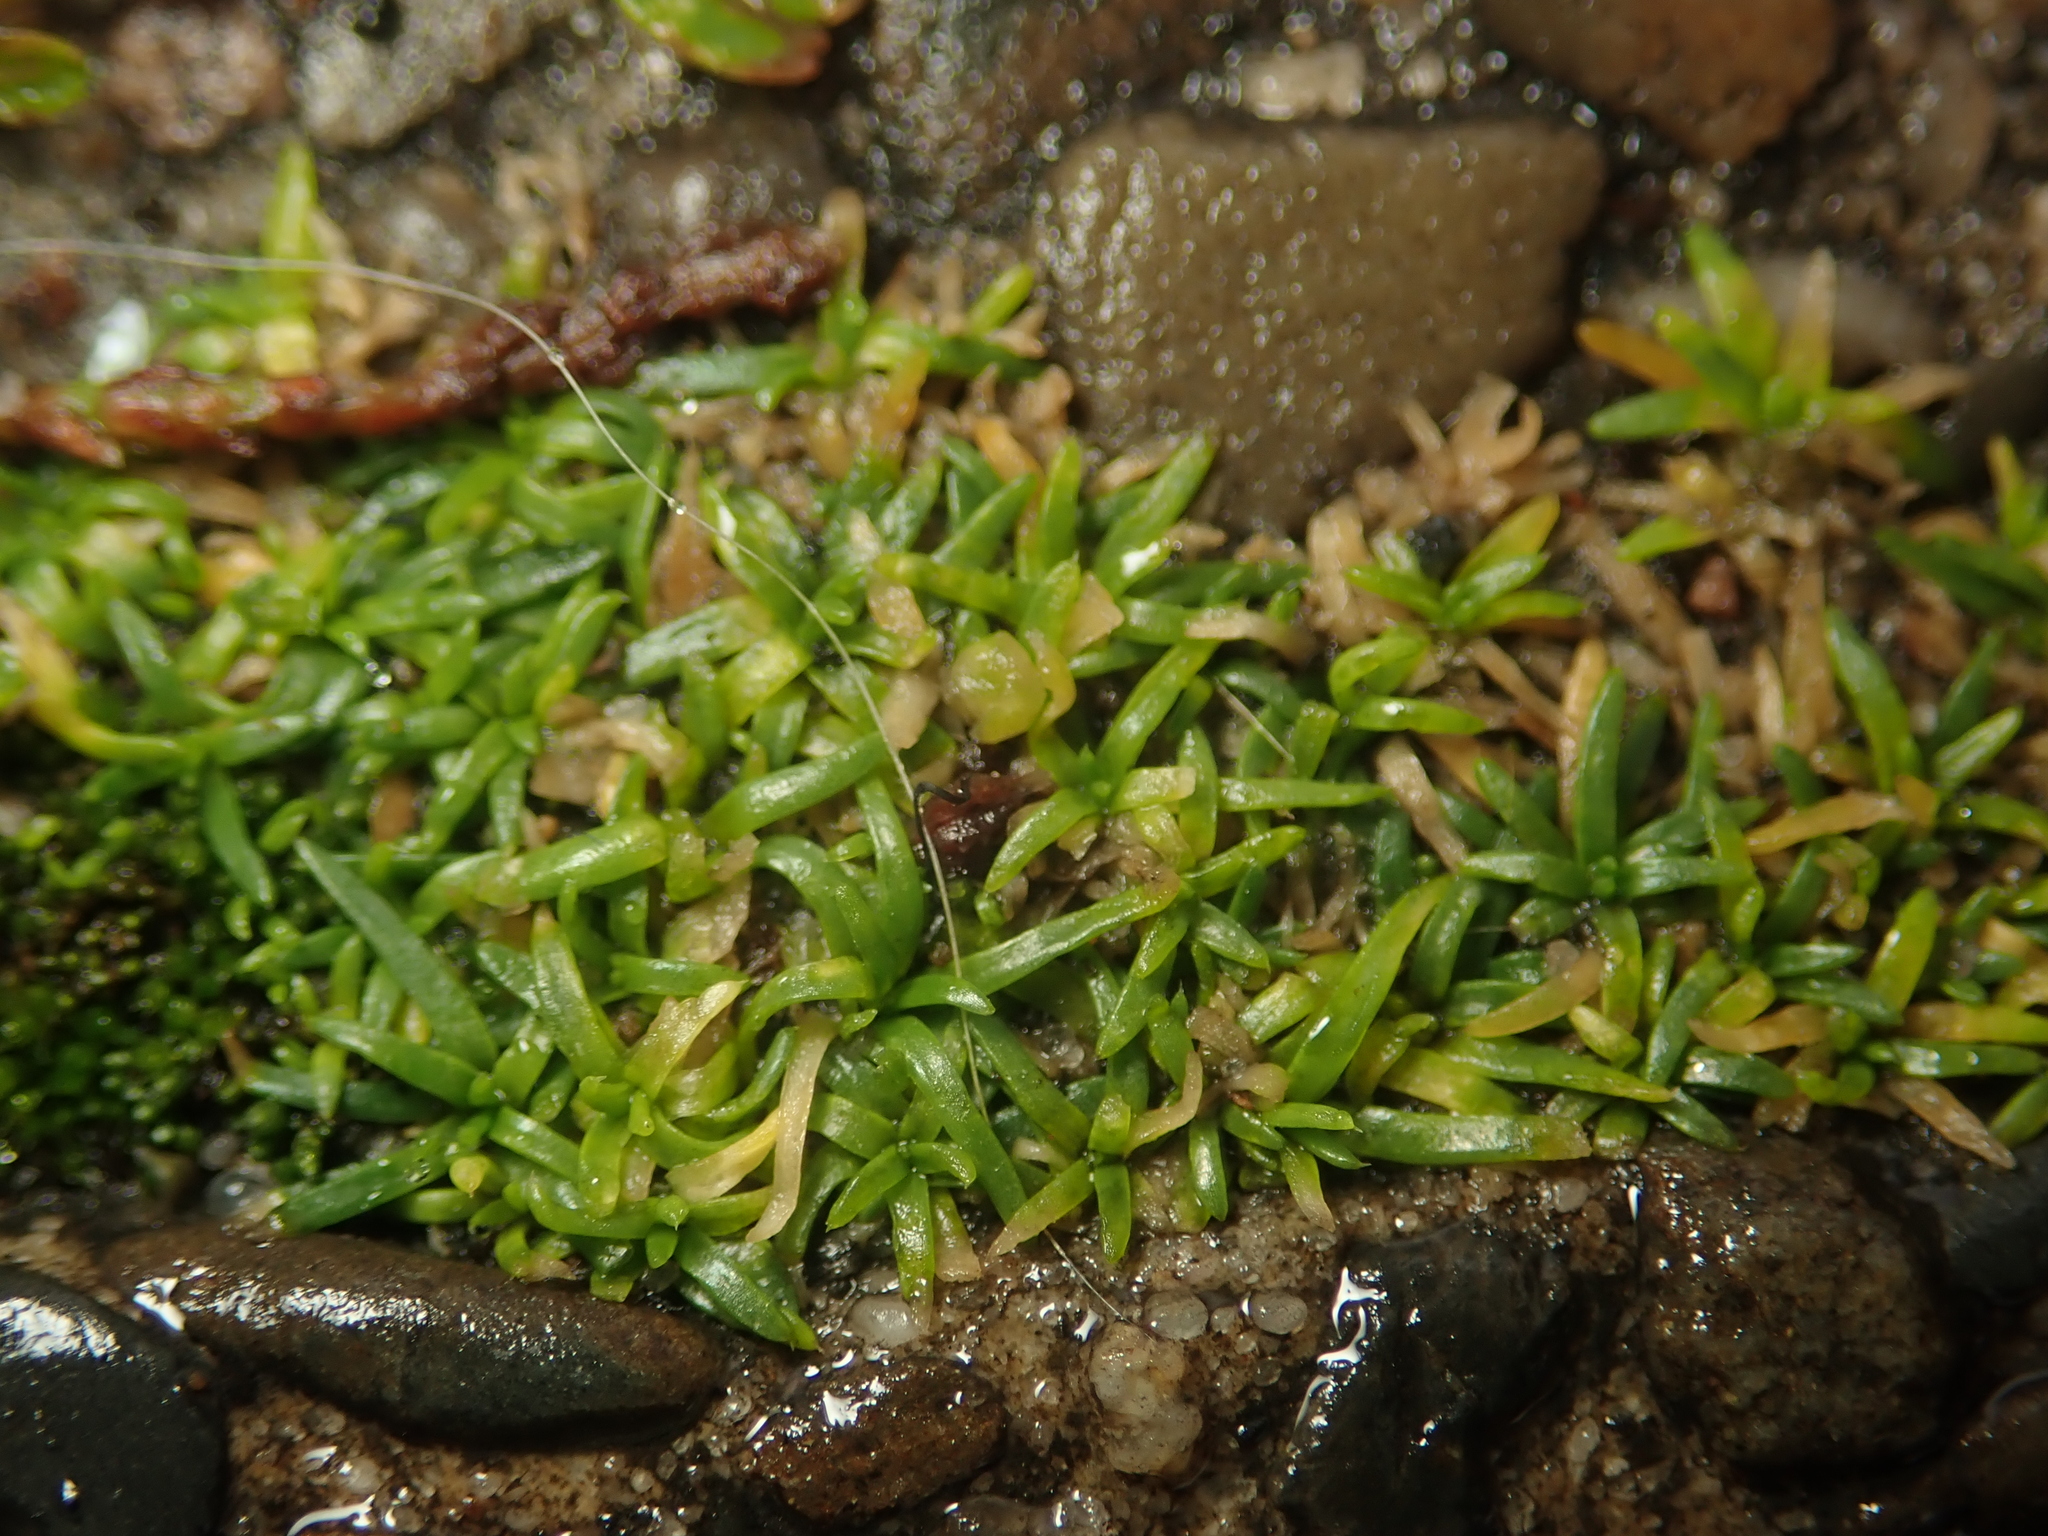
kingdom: Plantae
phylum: Tracheophyta
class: Magnoliopsida
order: Caryophyllales
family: Caryophyllaceae
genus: Sagina
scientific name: Sagina procumbens
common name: Procumbent pearlwort
